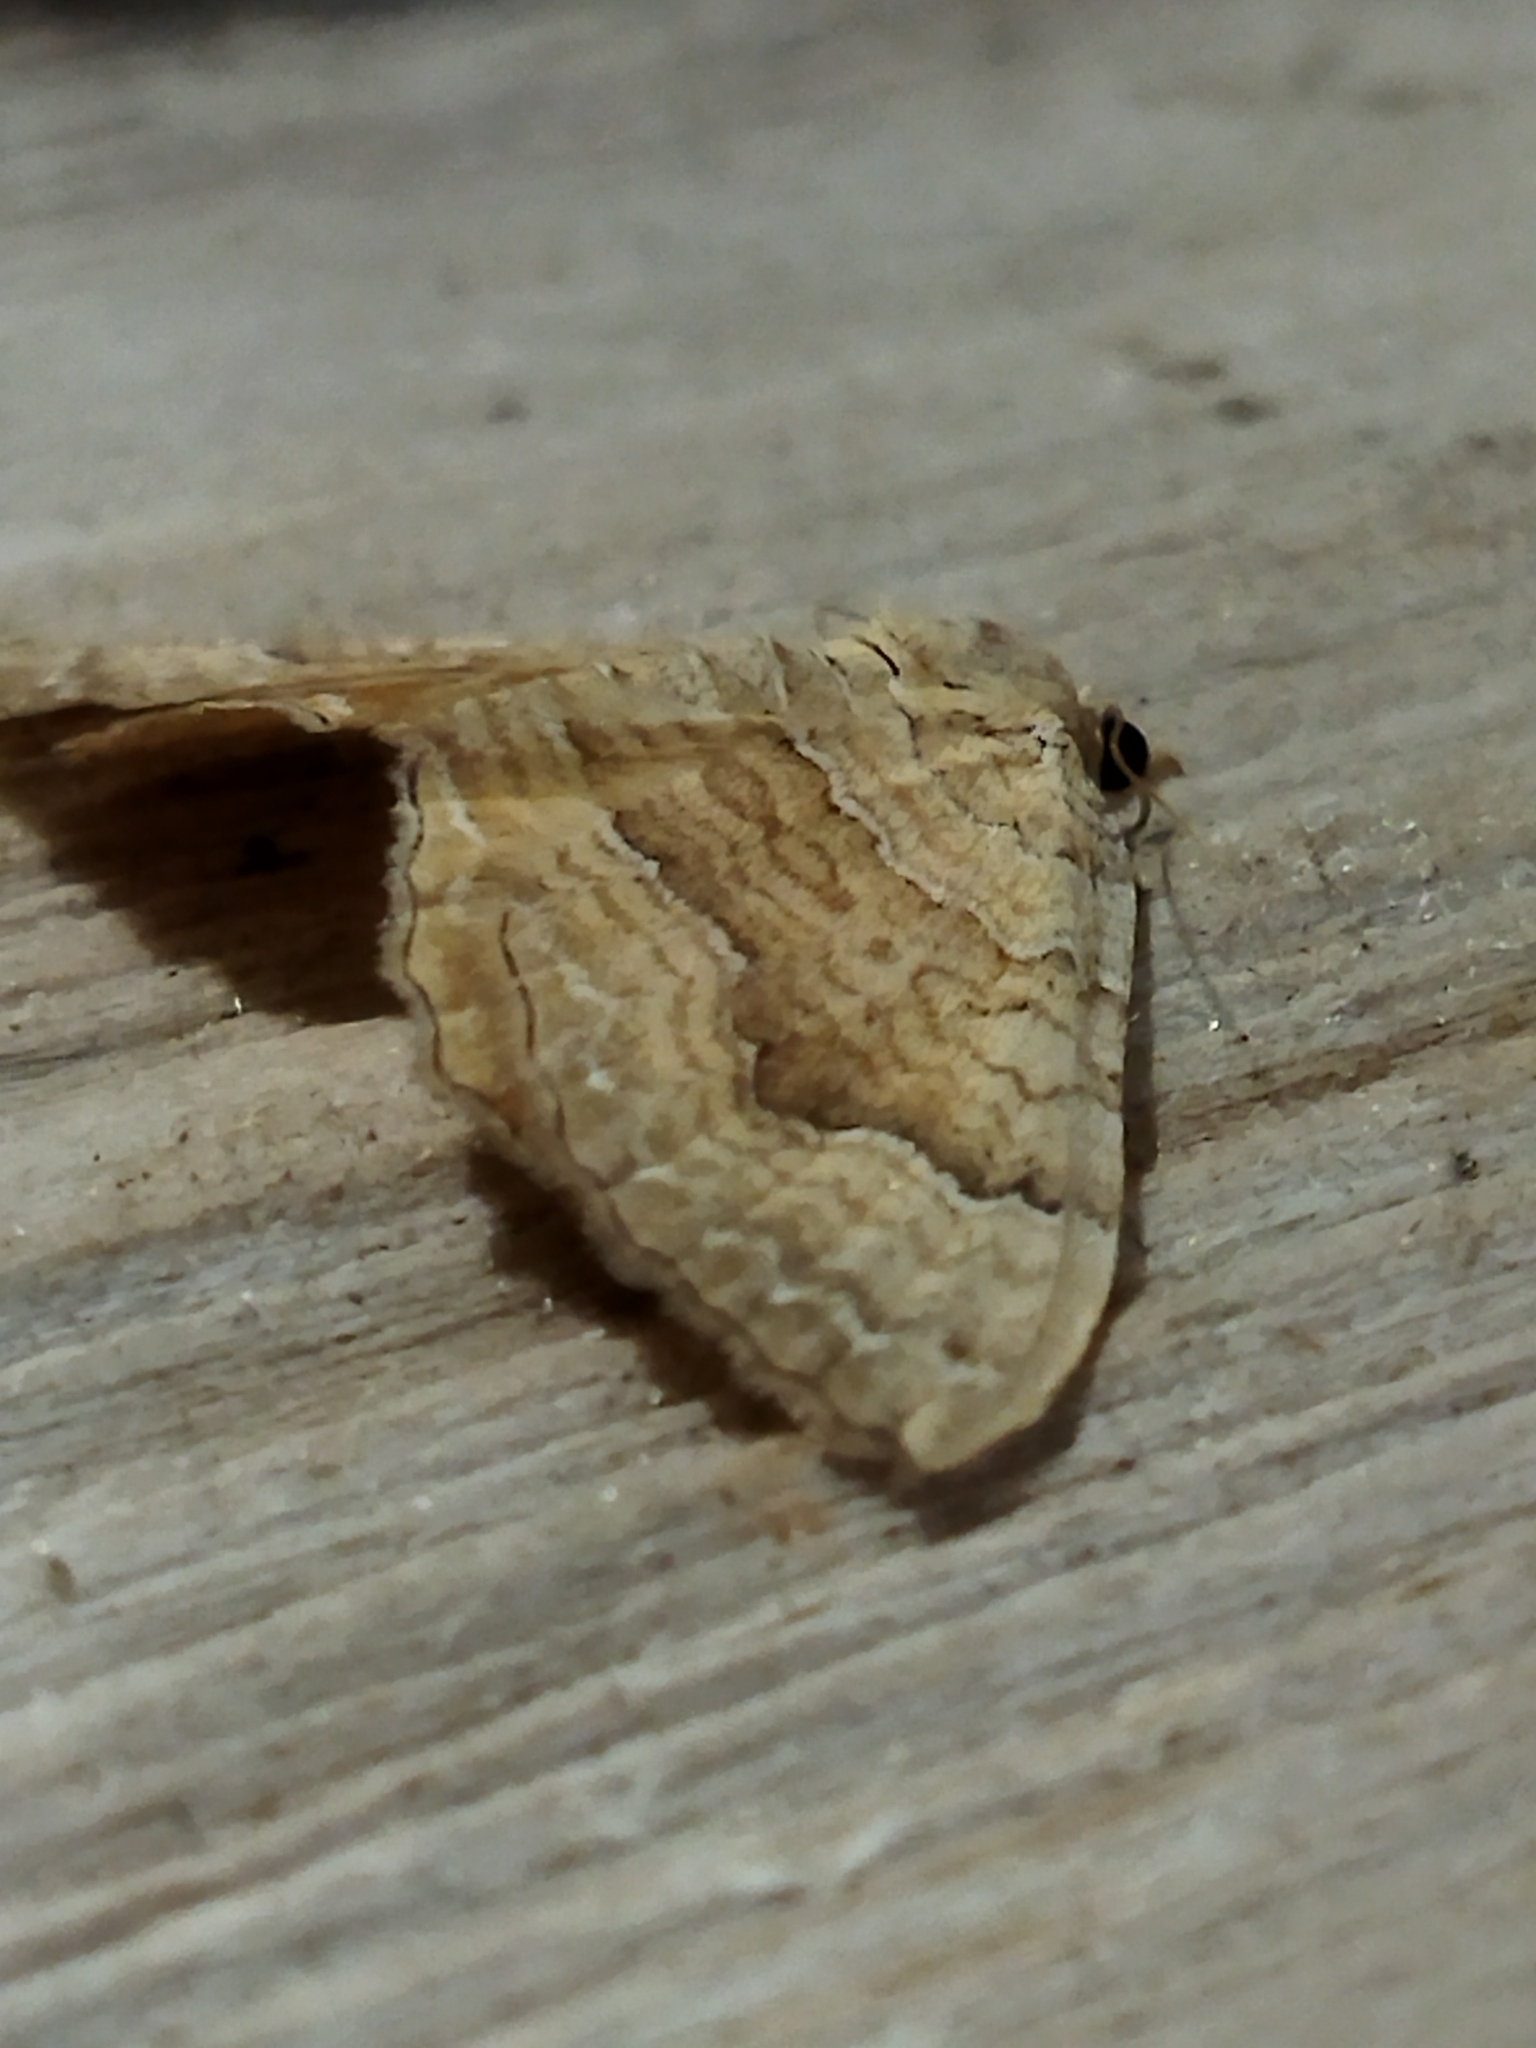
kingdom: Animalia
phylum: Arthropoda
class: Insecta
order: Lepidoptera
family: Geometridae
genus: Camptogramma
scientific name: Camptogramma bilineata
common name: Yellow shell
